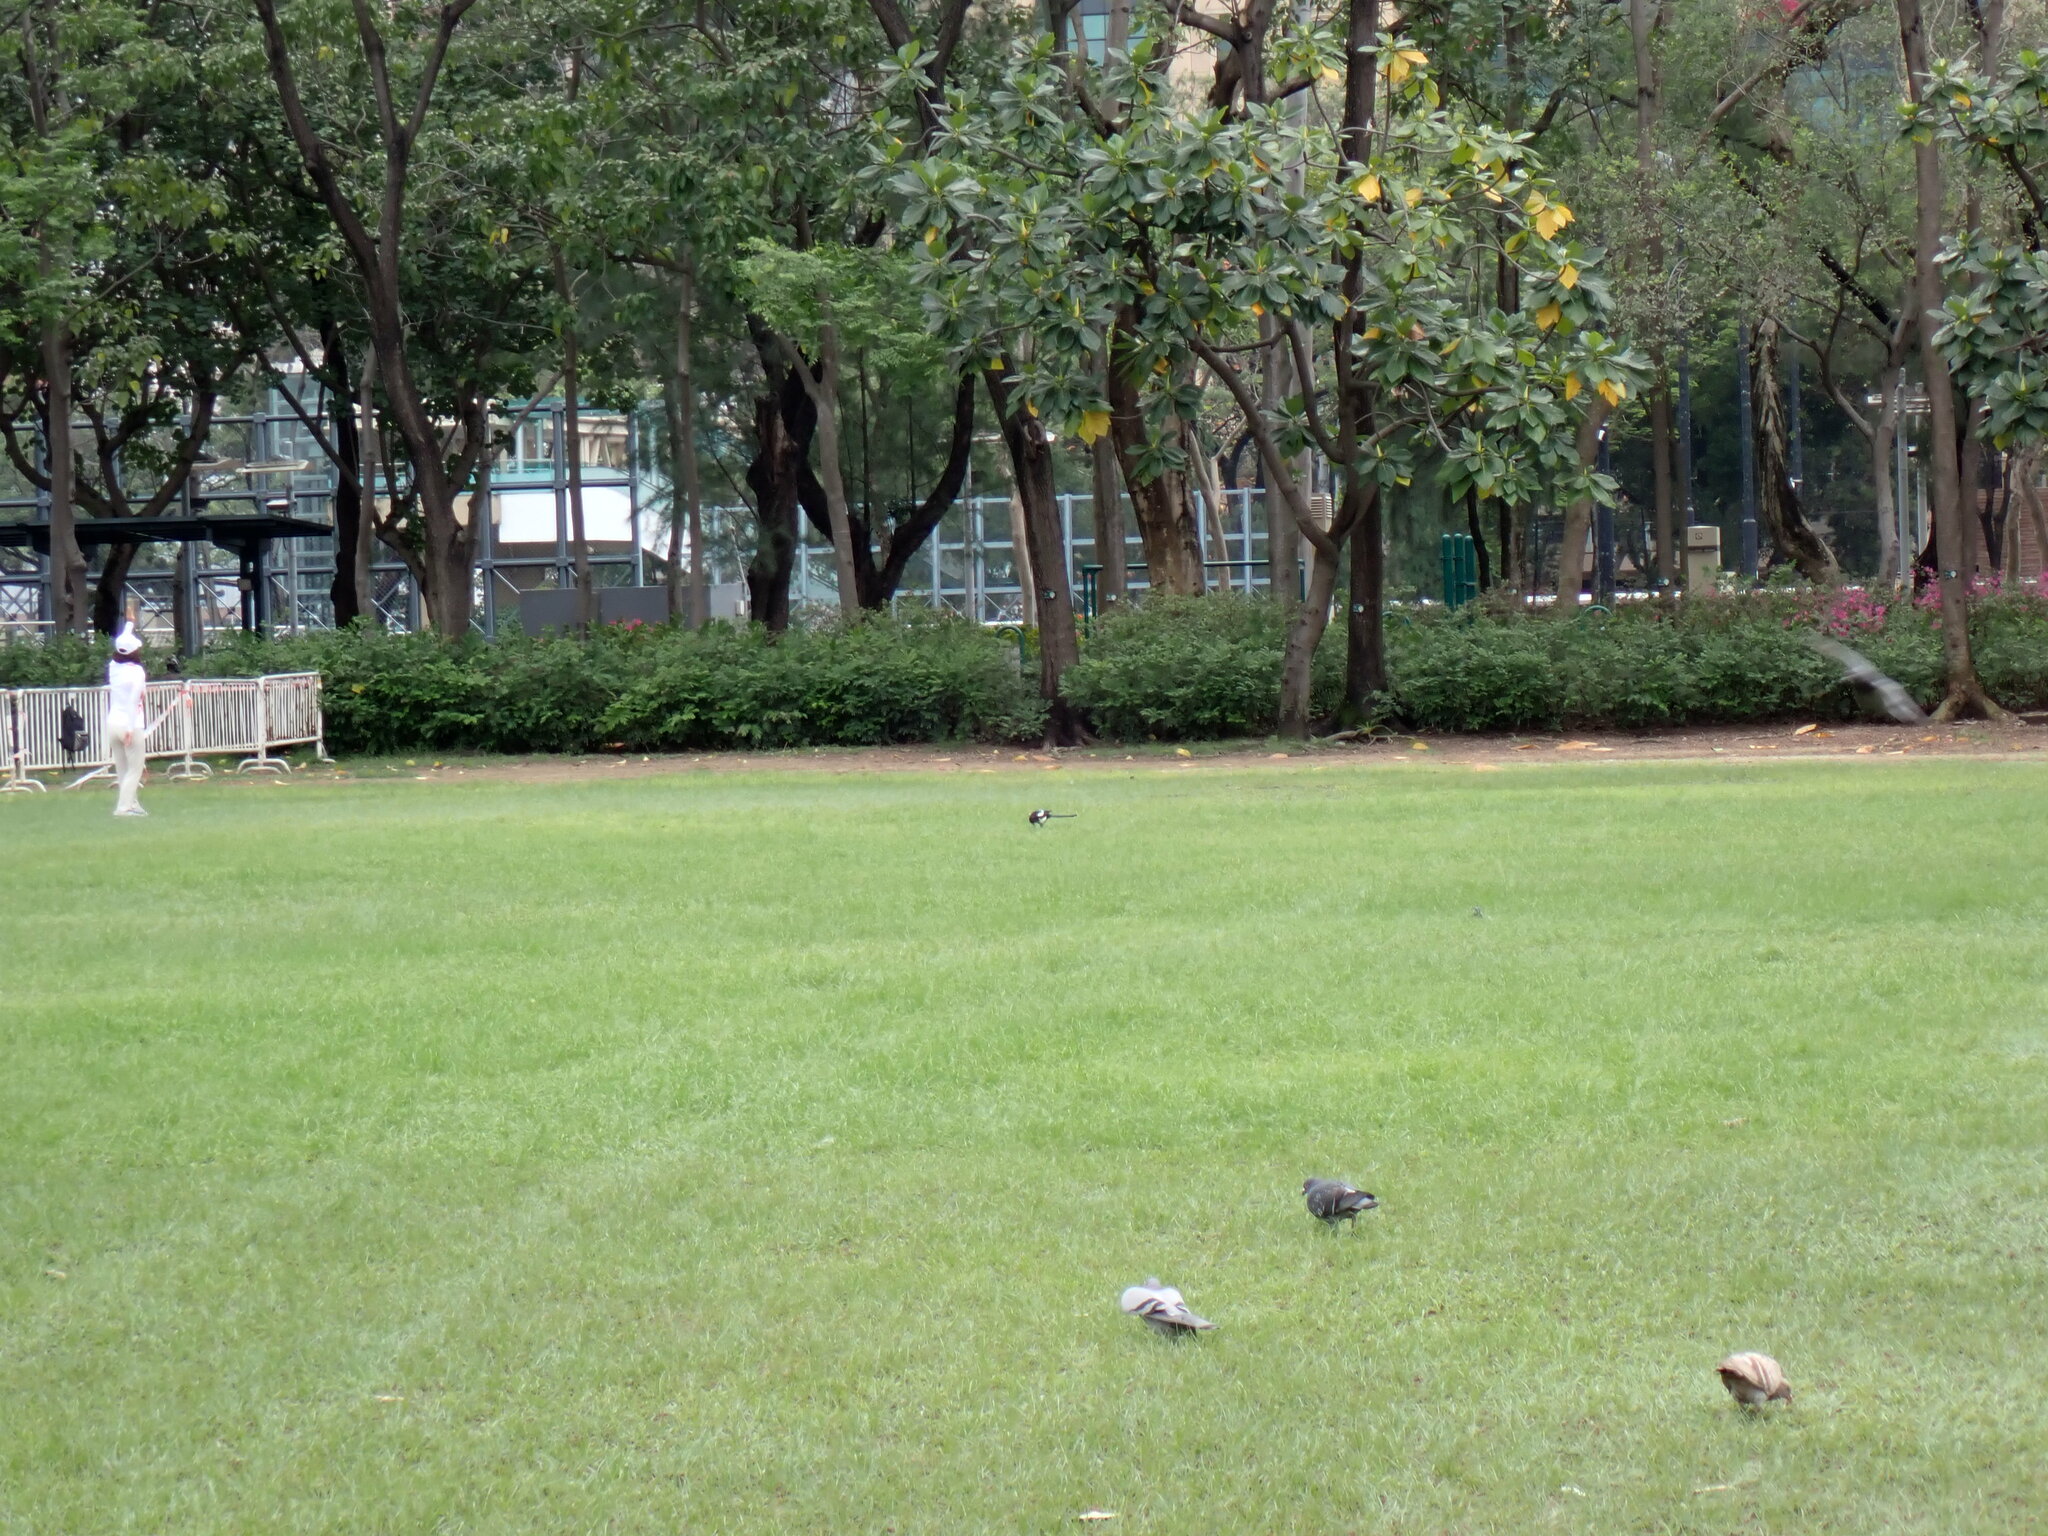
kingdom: Animalia
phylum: Chordata
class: Aves
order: Passeriformes
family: Corvidae
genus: Pica
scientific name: Pica serica
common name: Oriental magpie
